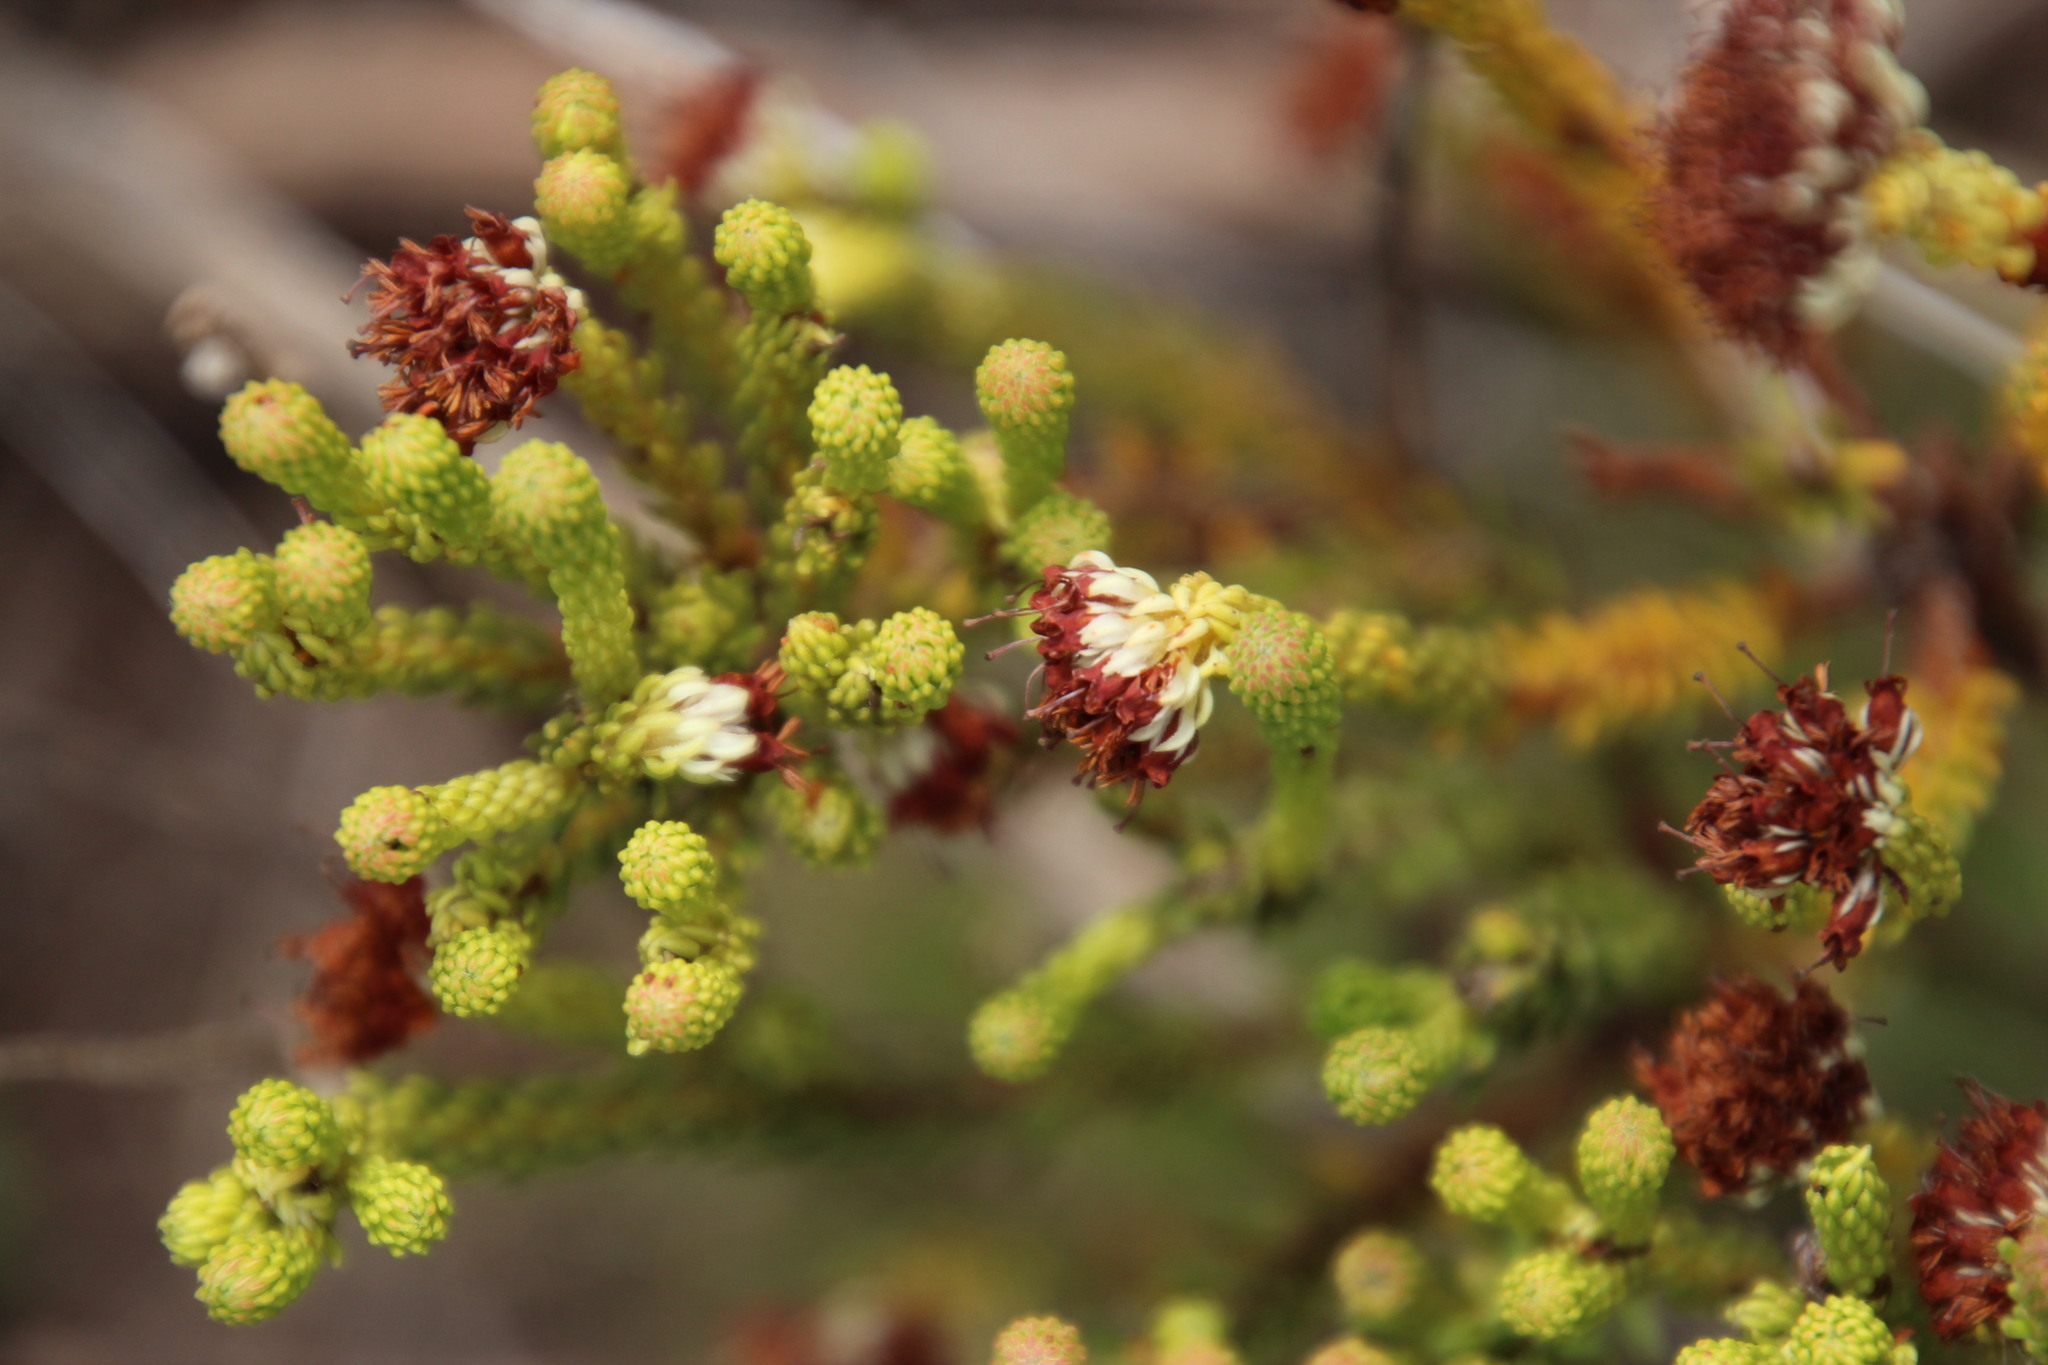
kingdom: Plantae
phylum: Tracheophyta
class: Magnoliopsida
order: Ericales
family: Ericaceae
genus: Erica
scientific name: Erica bruniifolia
